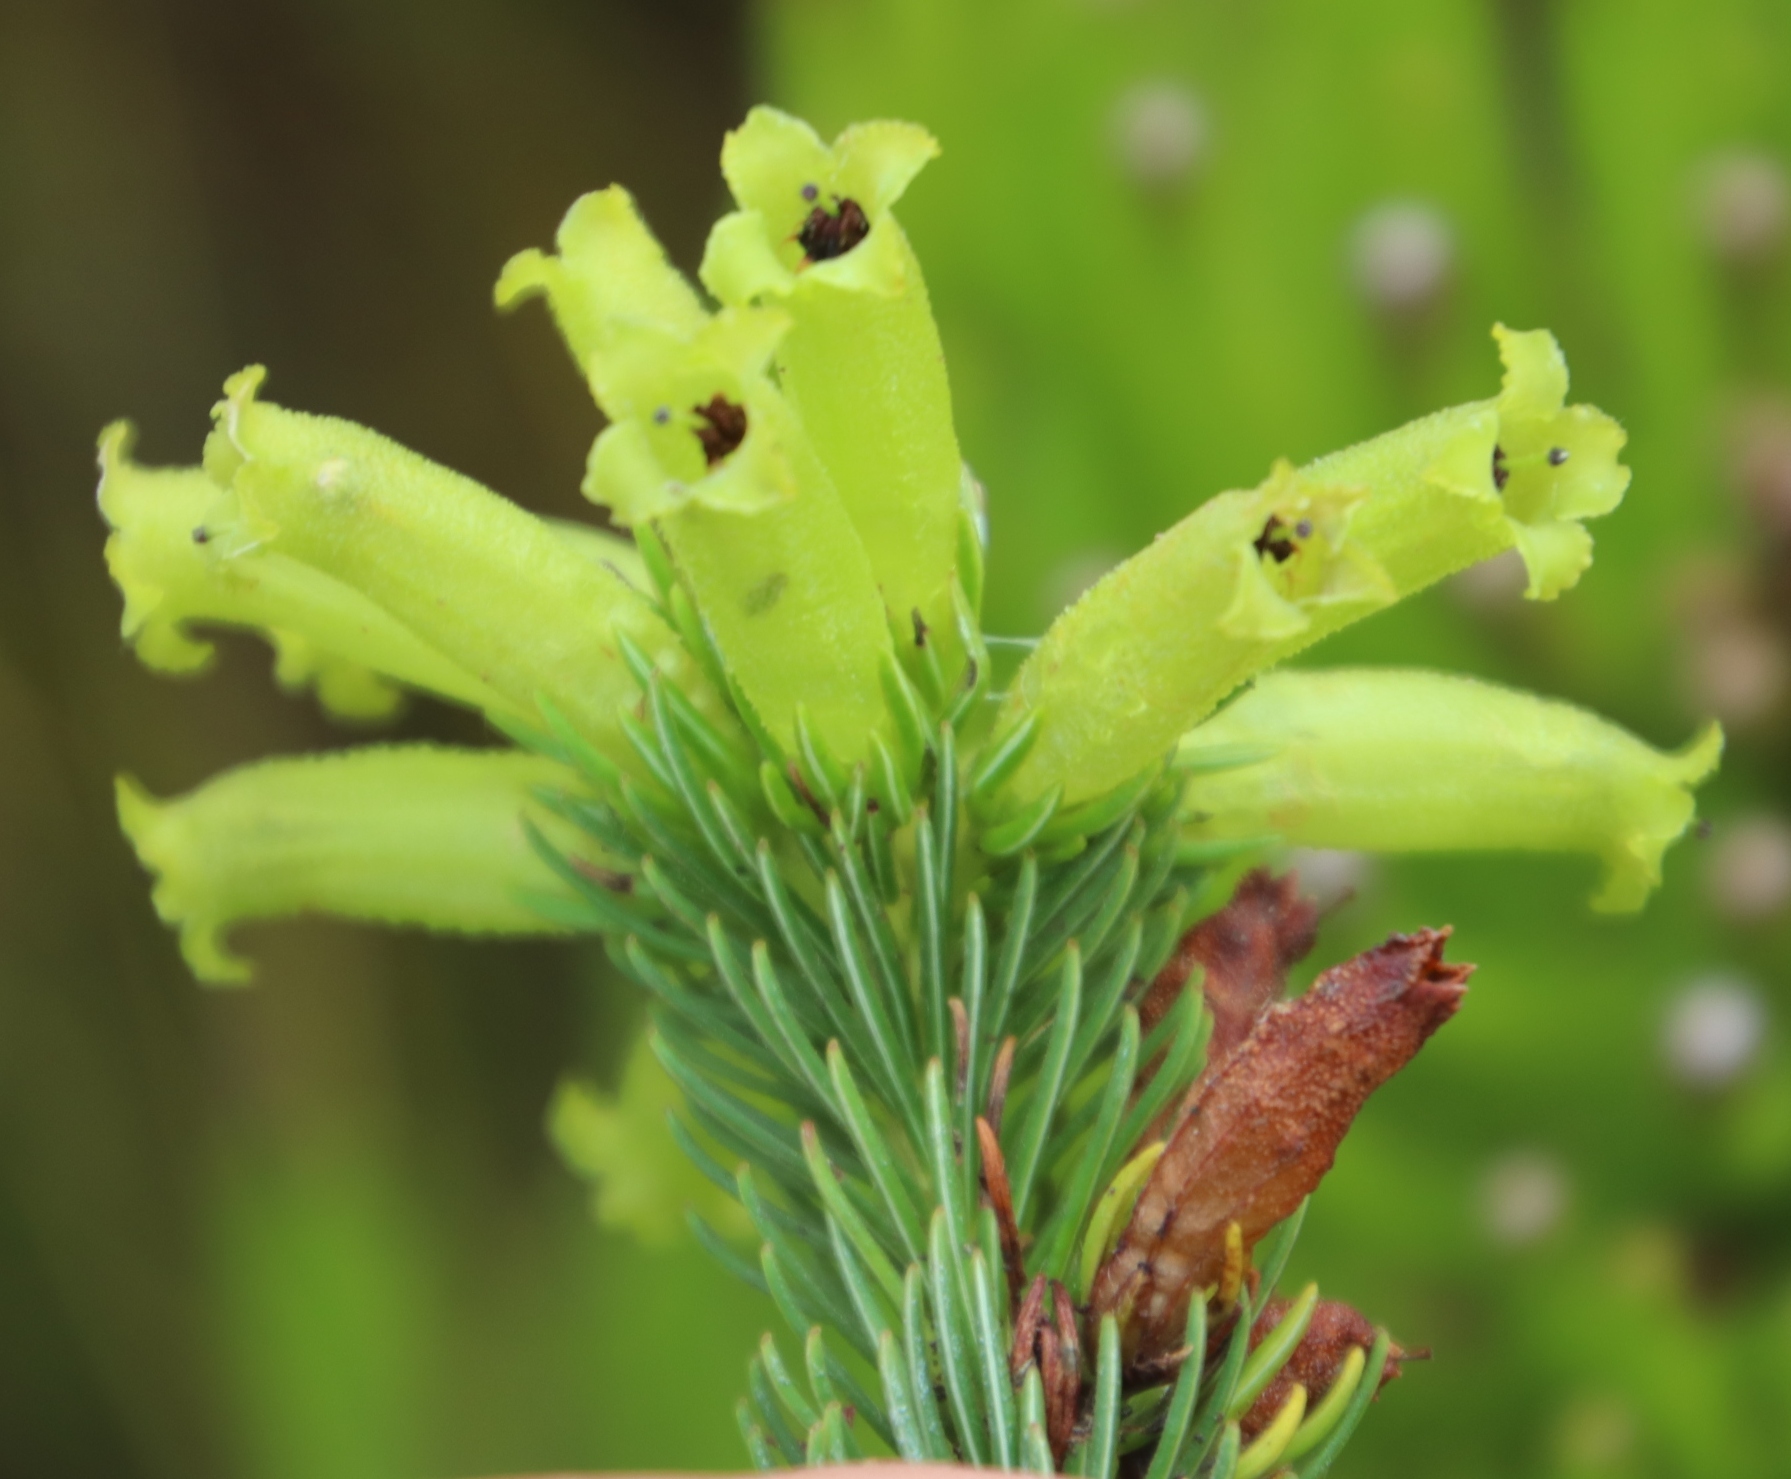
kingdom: Plantae
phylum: Tracheophyta
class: Magnoliopsida
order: Ericales
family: Ericaceae
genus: Erica
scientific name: Erica viscaria
